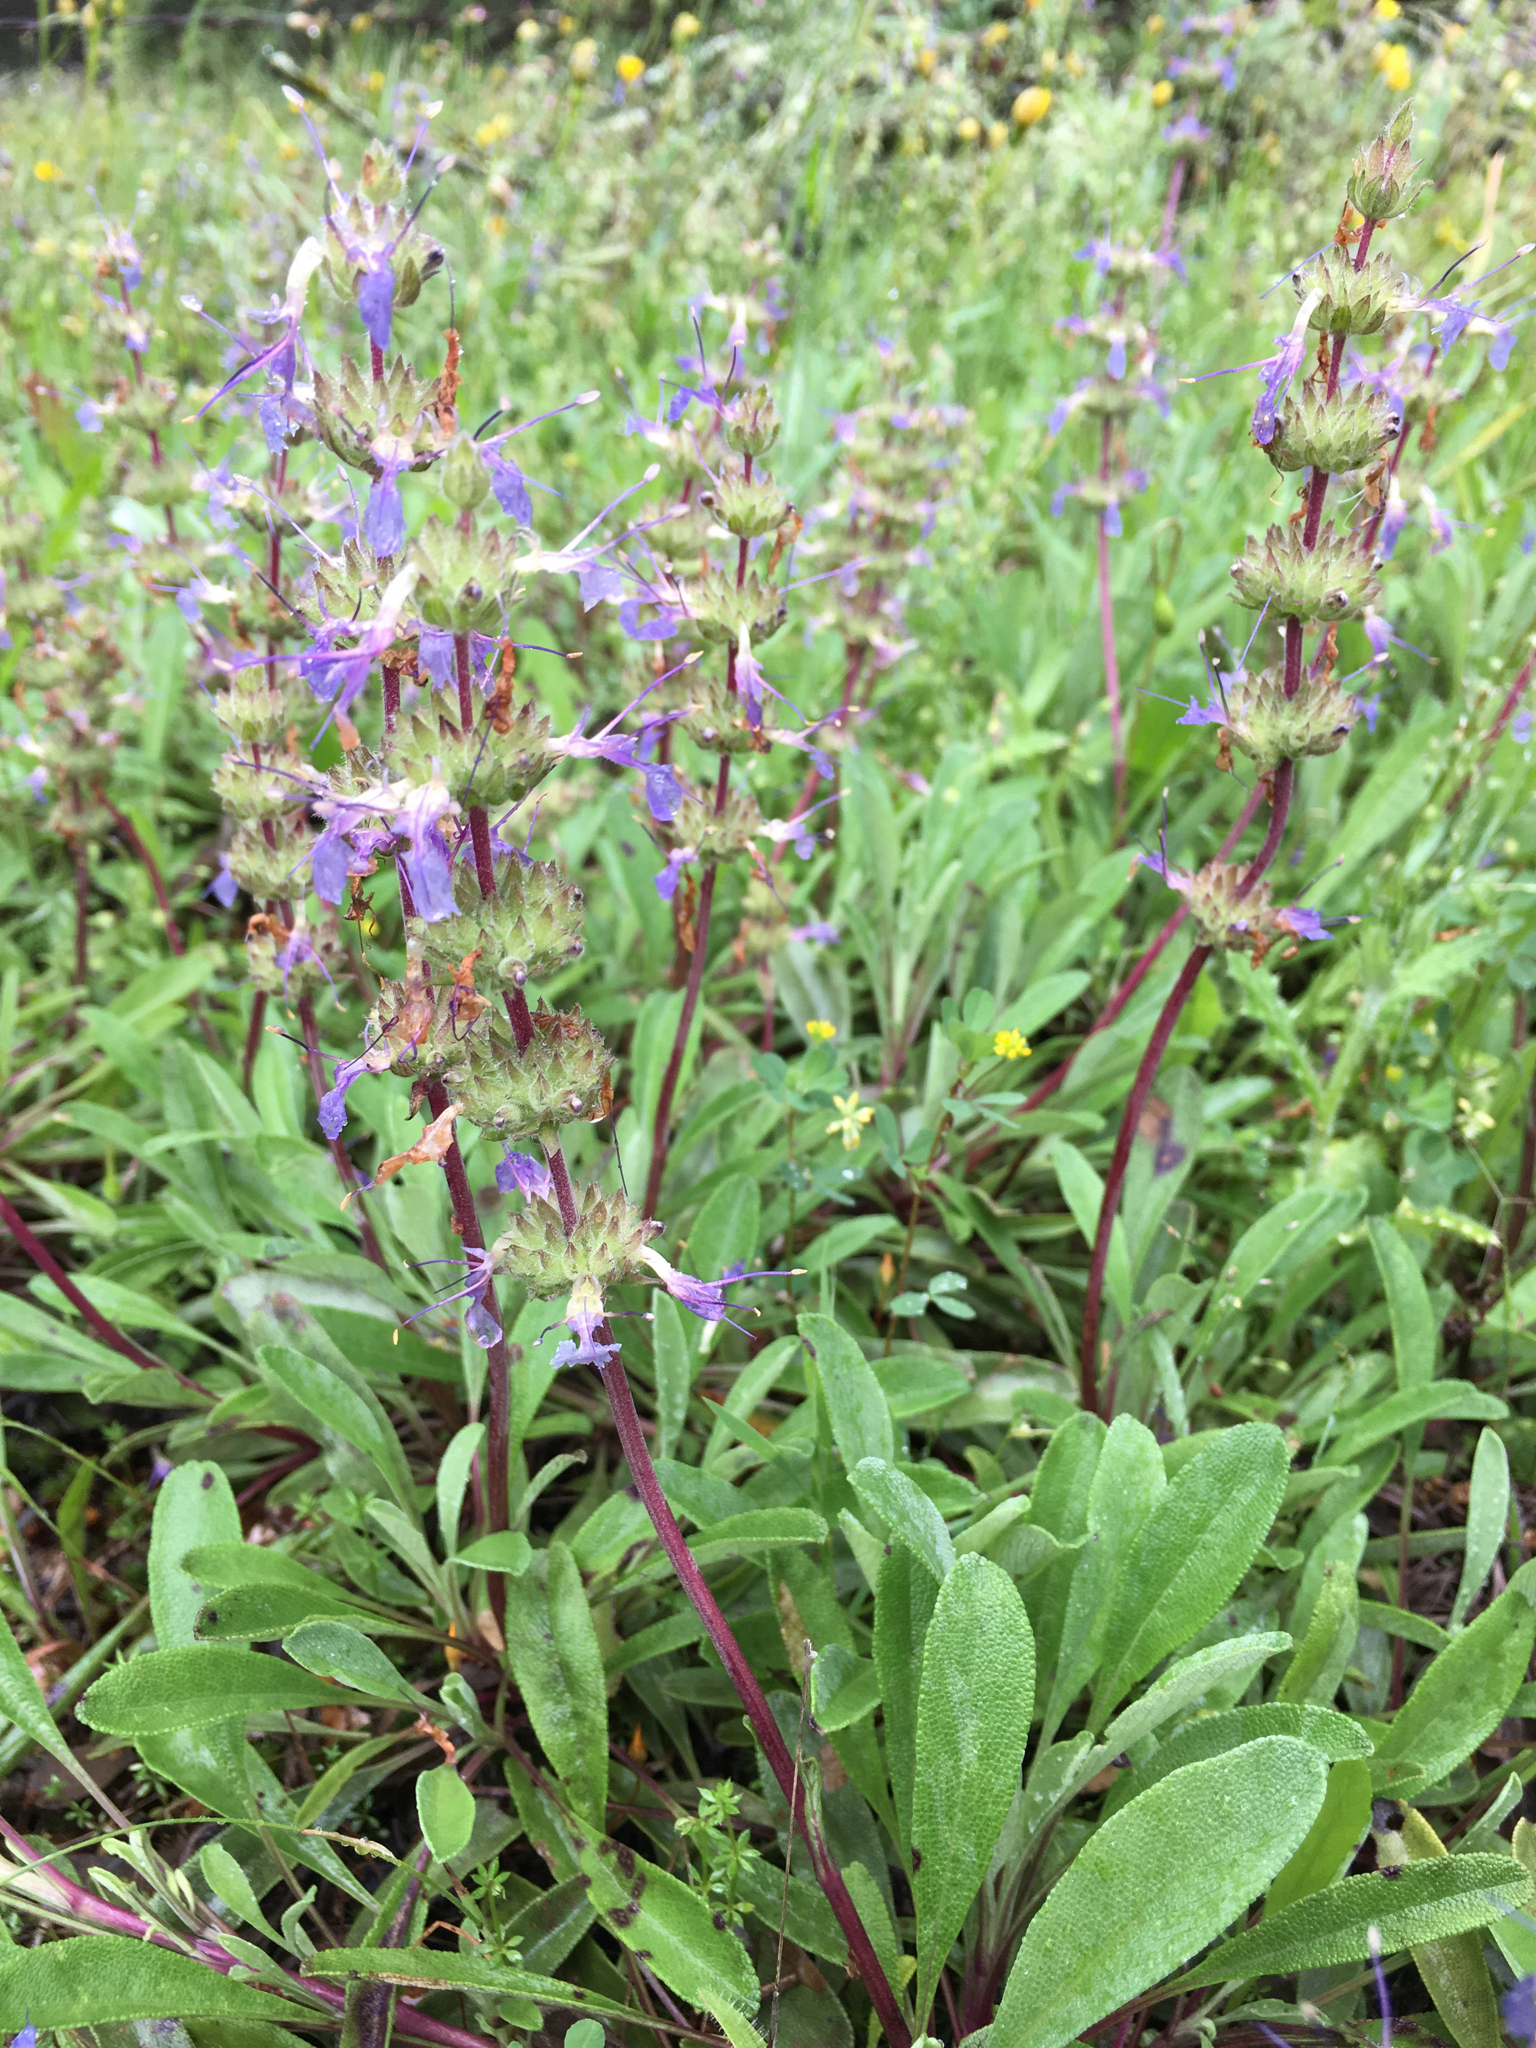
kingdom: Plantae
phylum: Tracheophyta
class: Magnoliopsida
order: Lamiales
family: Lamiaceae
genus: Salvia
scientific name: Salvia sonomensis
